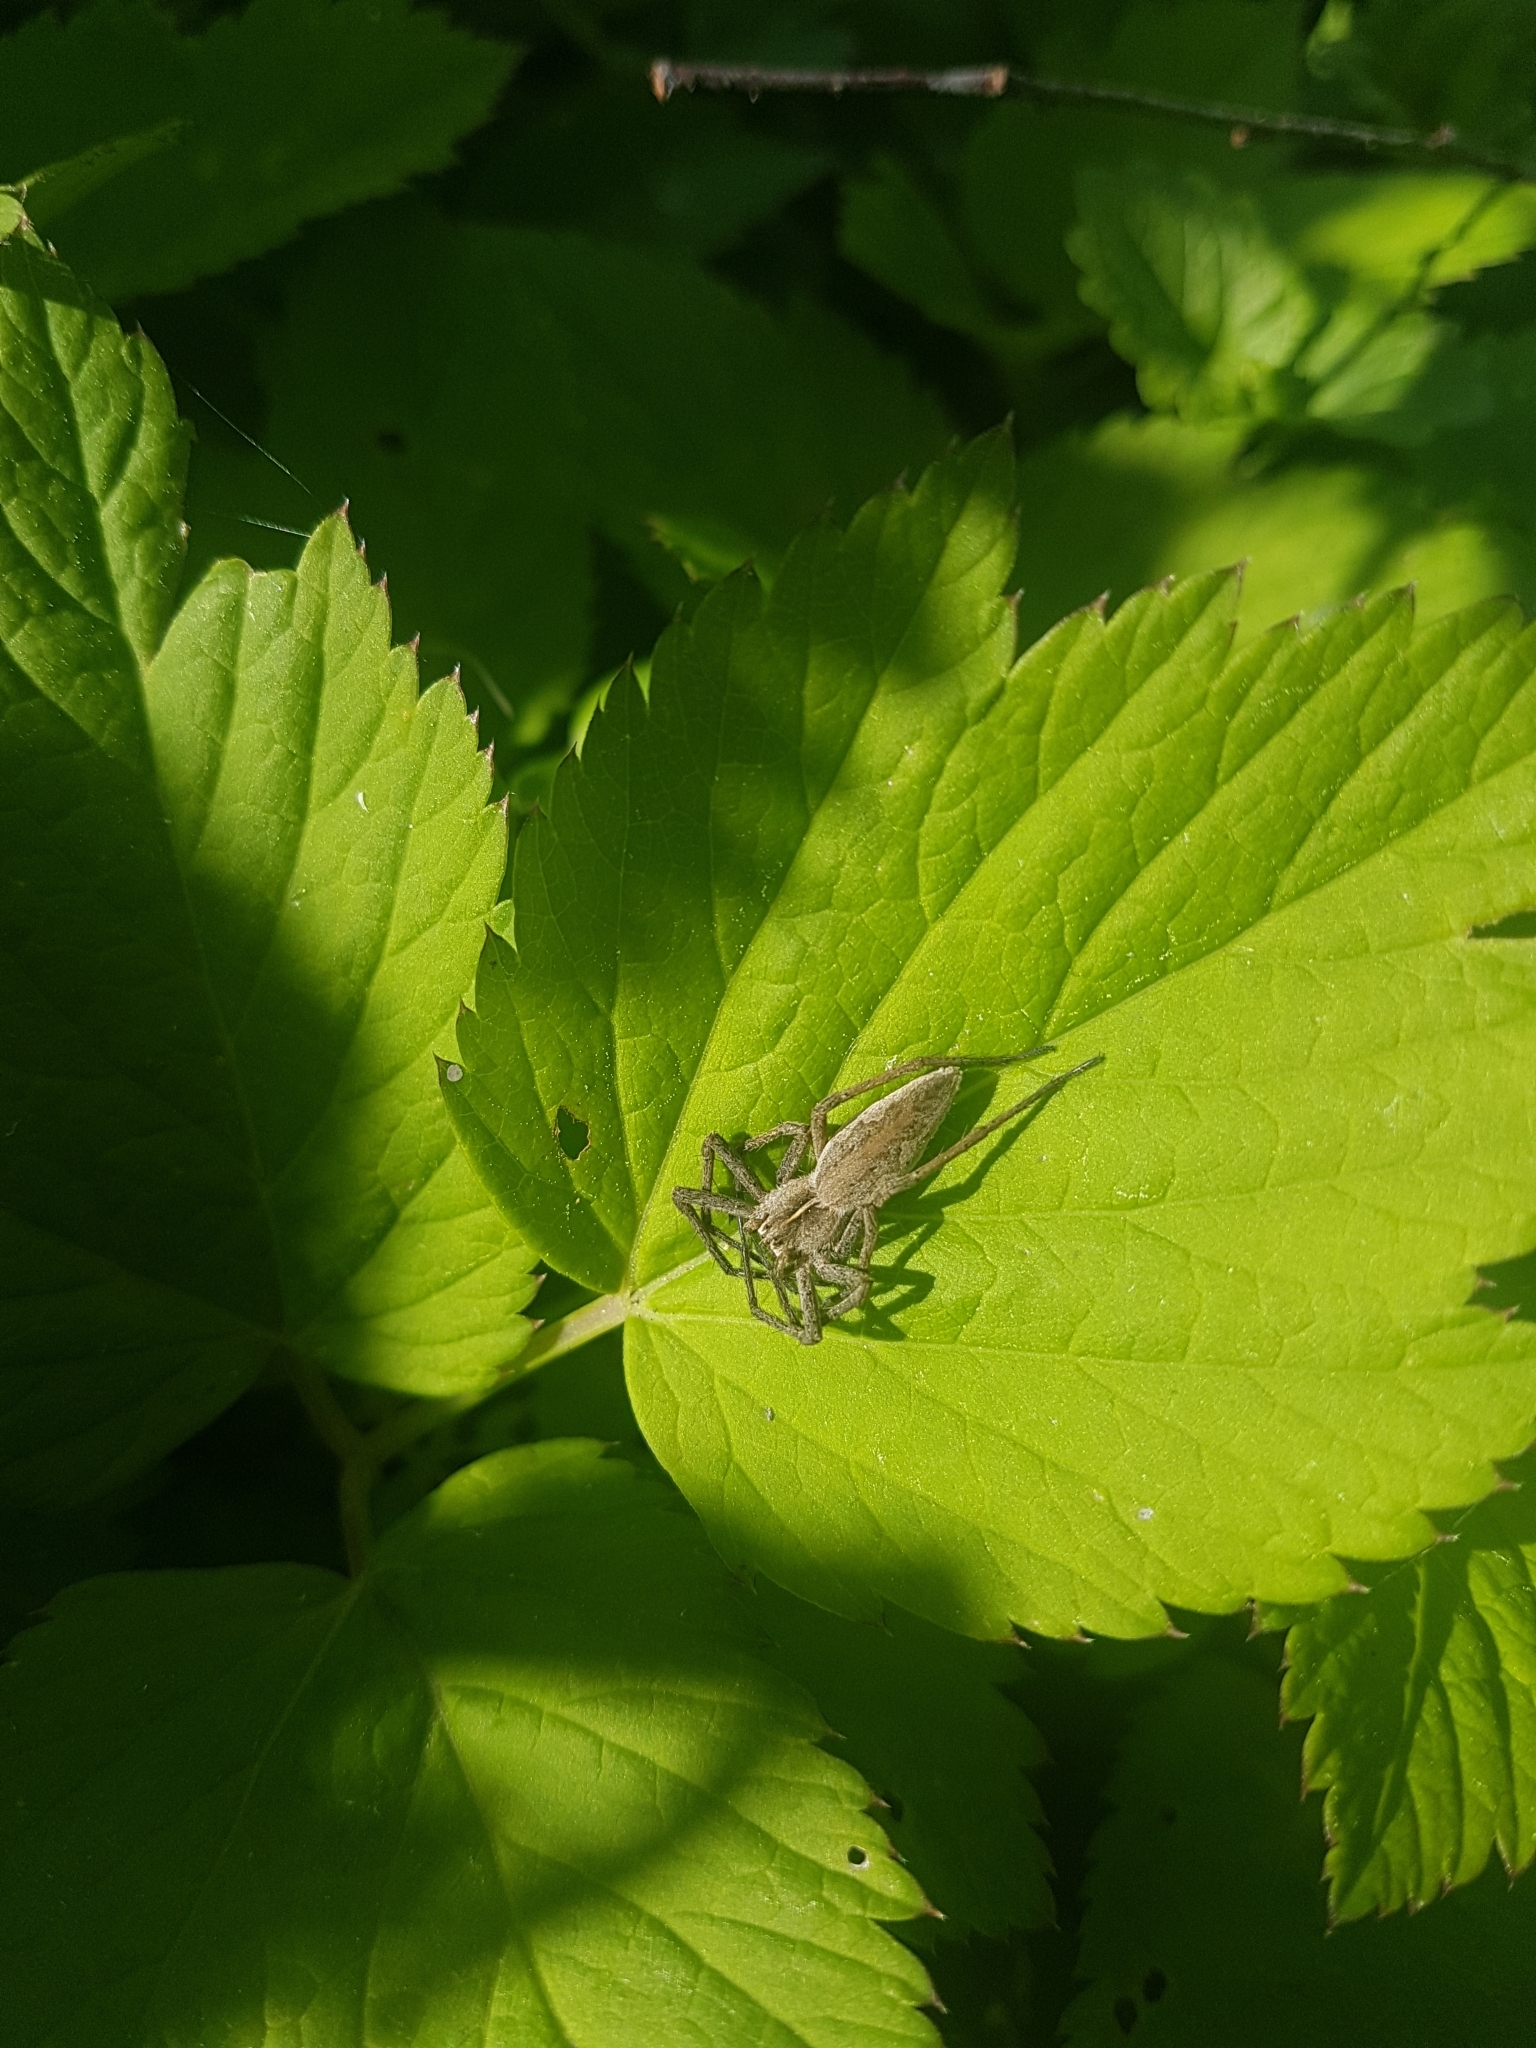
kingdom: Animalia
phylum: Arthropoda
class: Arachnida
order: Araneae
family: Pisauridae
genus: Pisaura
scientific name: Pisaura mirabilis
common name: Tent spider
